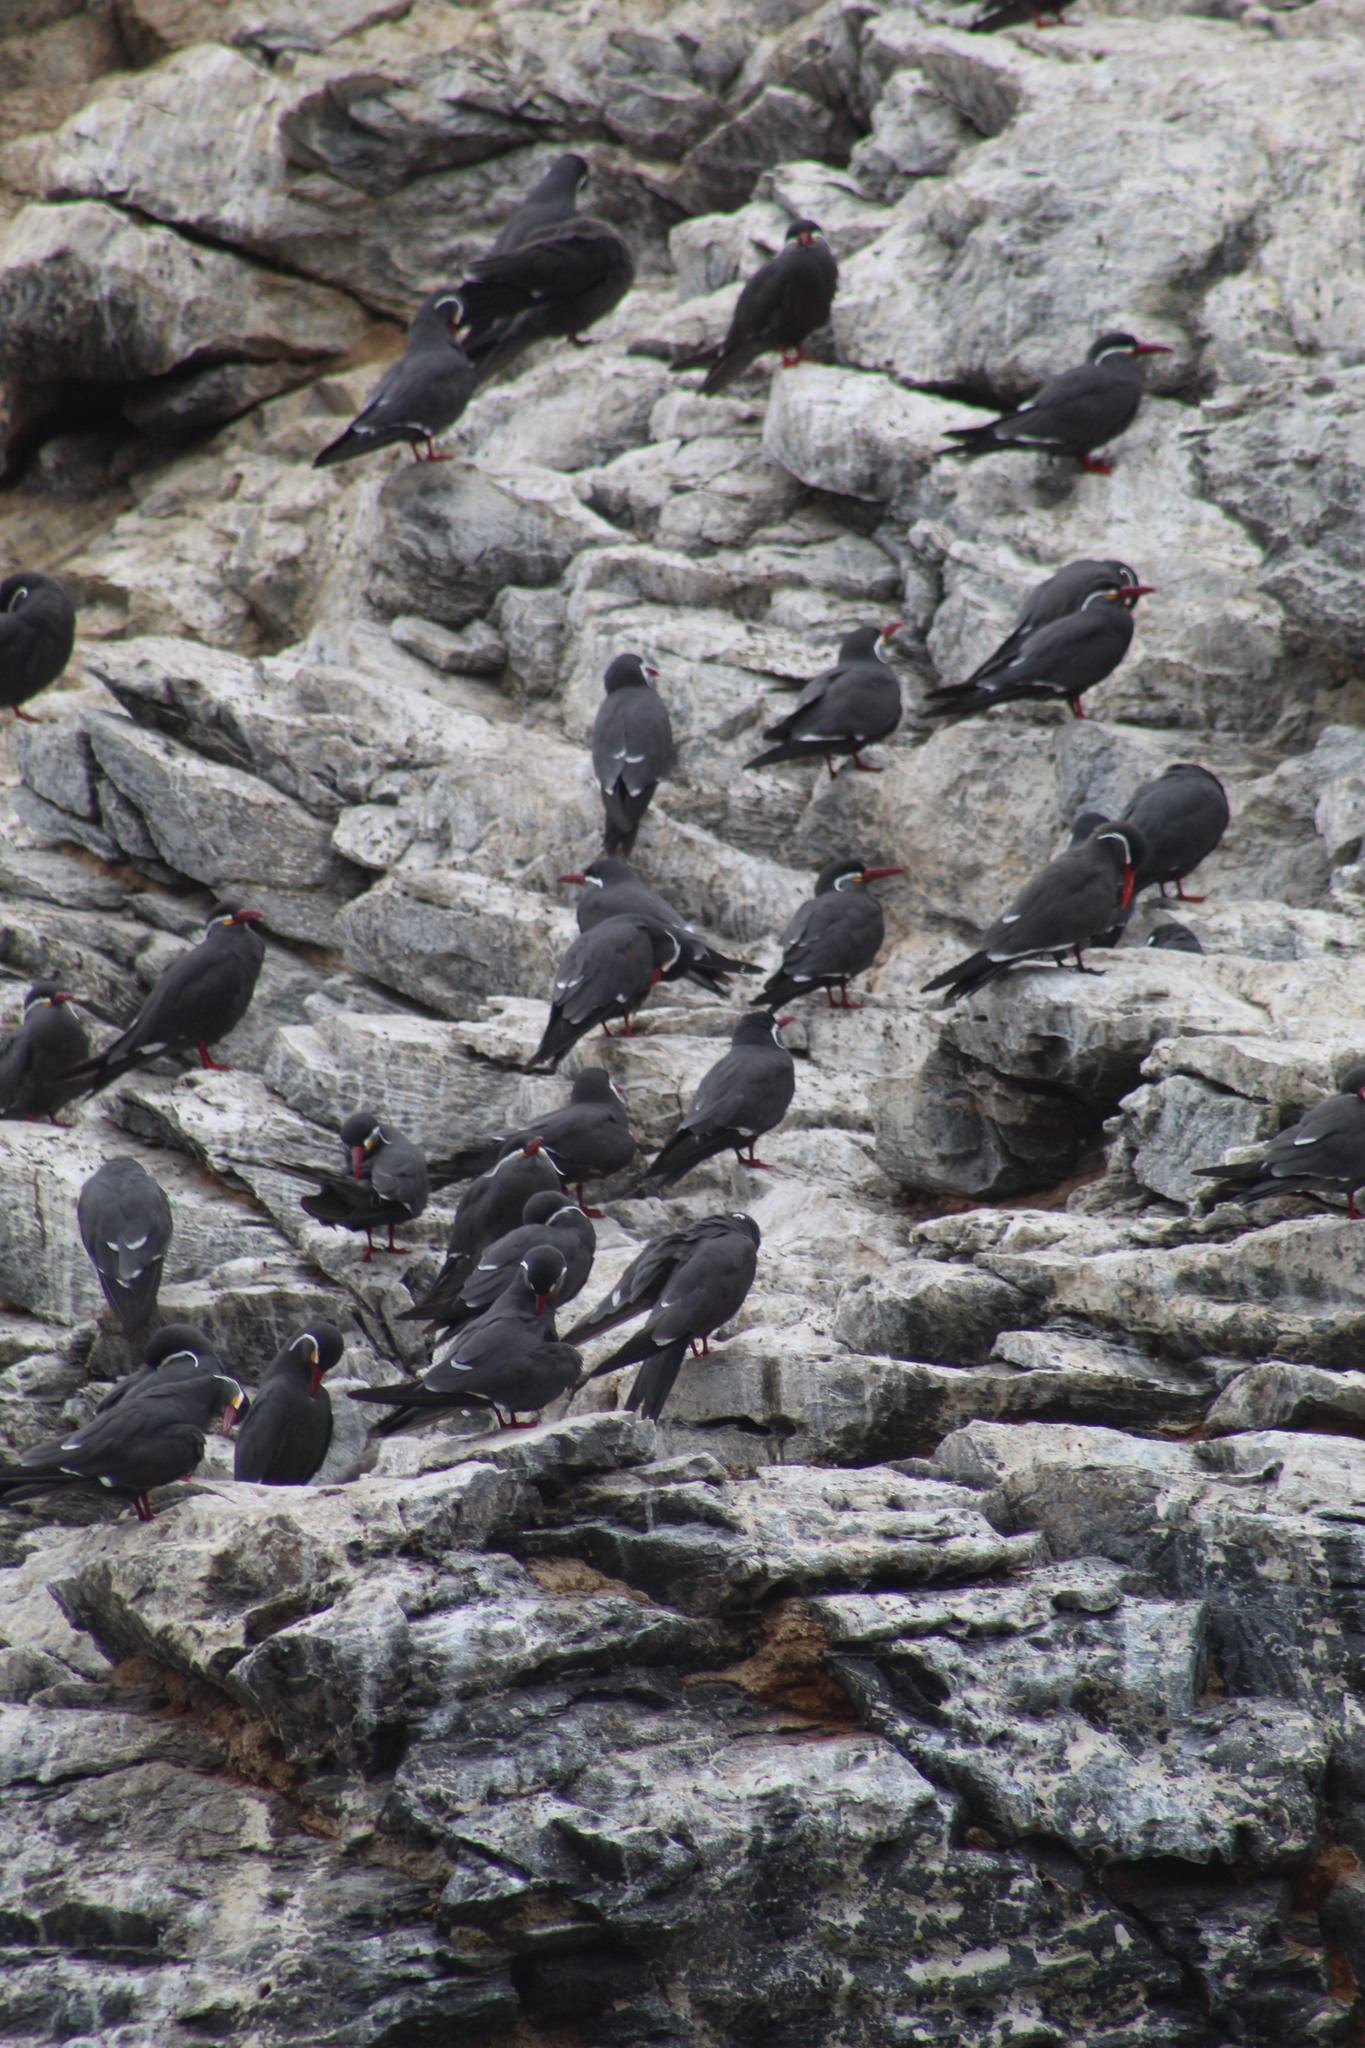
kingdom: Animalia
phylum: Chordata
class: Aves
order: Charadriiformes
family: Laridae
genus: Larosterna
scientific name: Larosterna inca
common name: Inca tern
